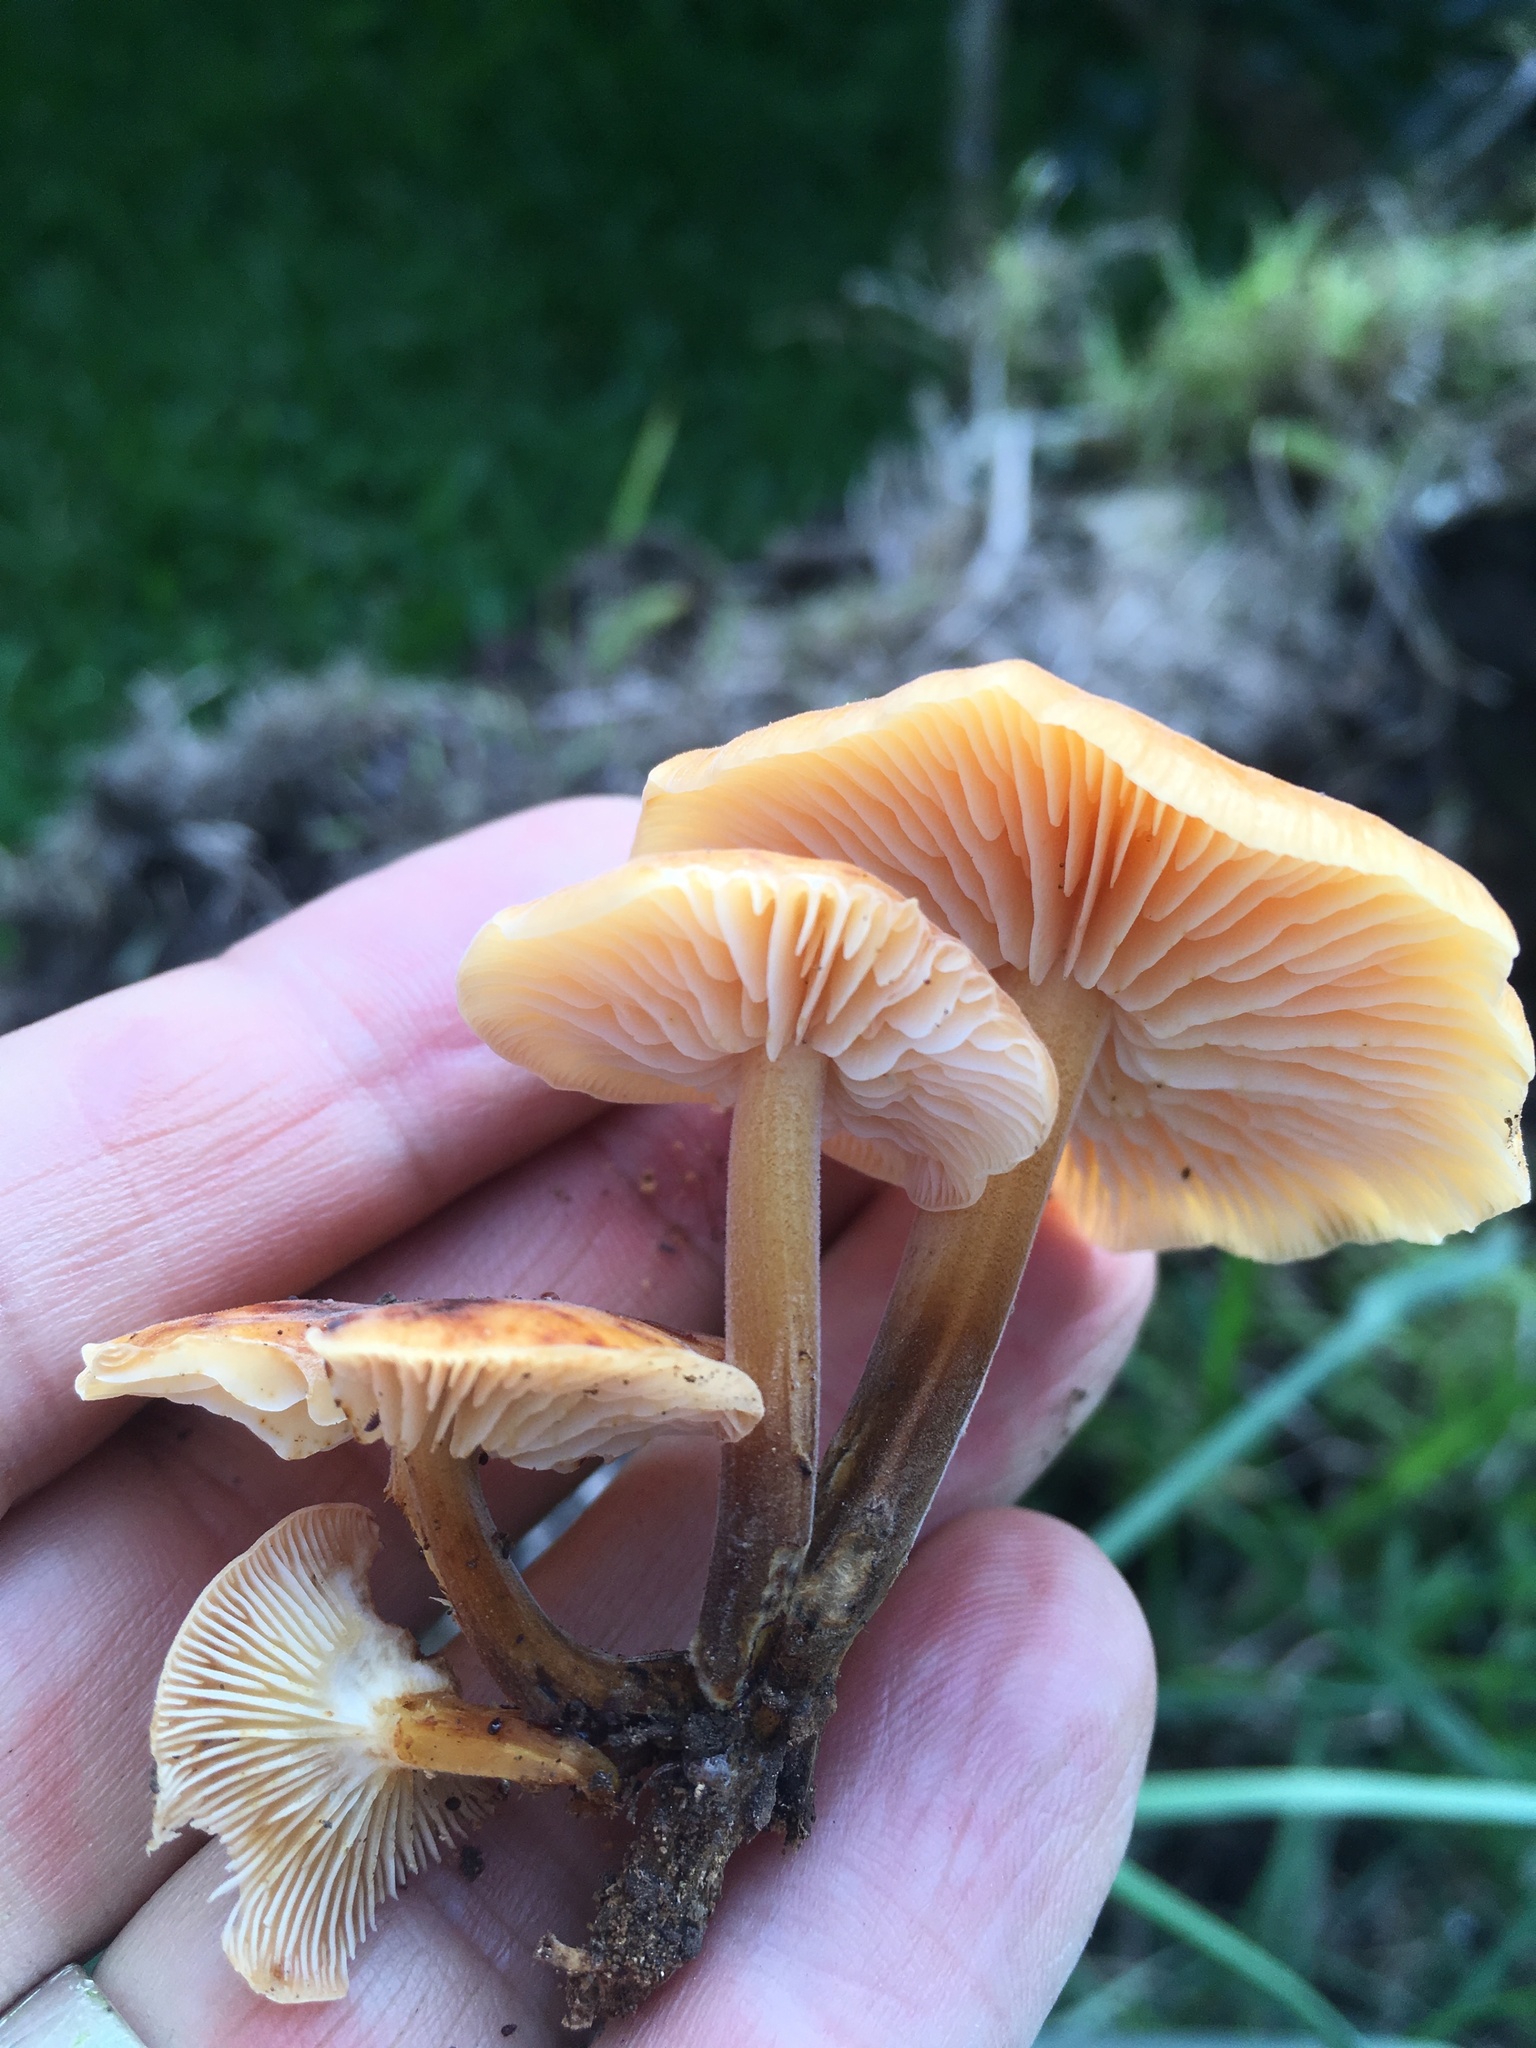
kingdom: Fungi
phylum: Basidiomycota
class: Agaricomycetes
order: Agaricales
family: Physalacriaceae
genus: Flammulina
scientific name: Flammulina velutipes
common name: Velvet shank
